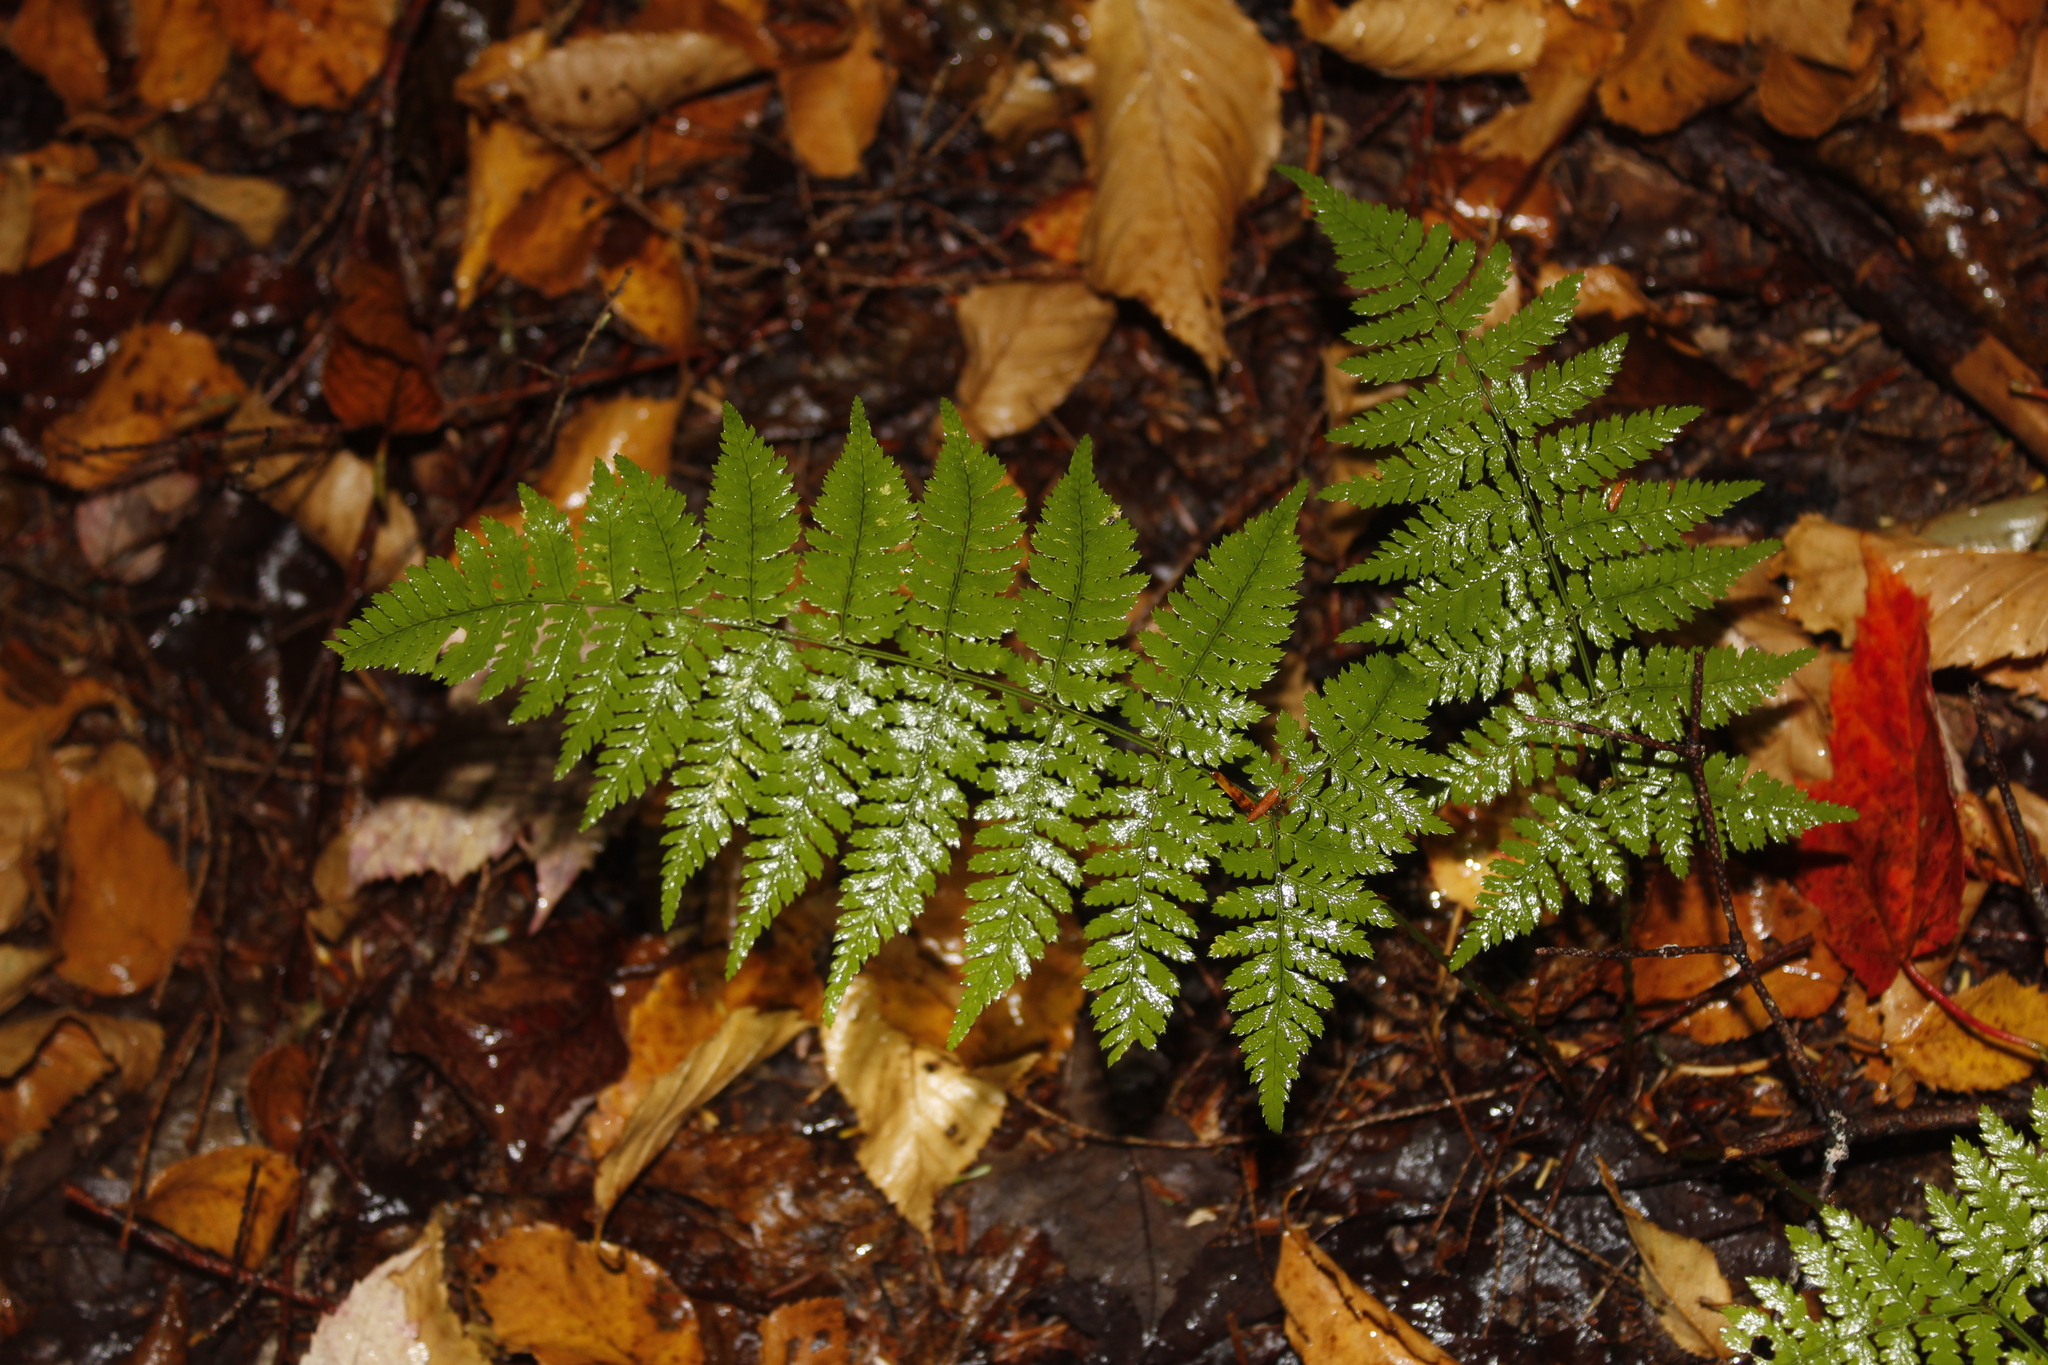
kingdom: Plantae
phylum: Tracheophyta
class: Polypodiopsida
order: Polypodiales
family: Dryopteridaceae
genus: Dryopteris
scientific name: Dryopteris intermedia
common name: Evergreen wood fern
